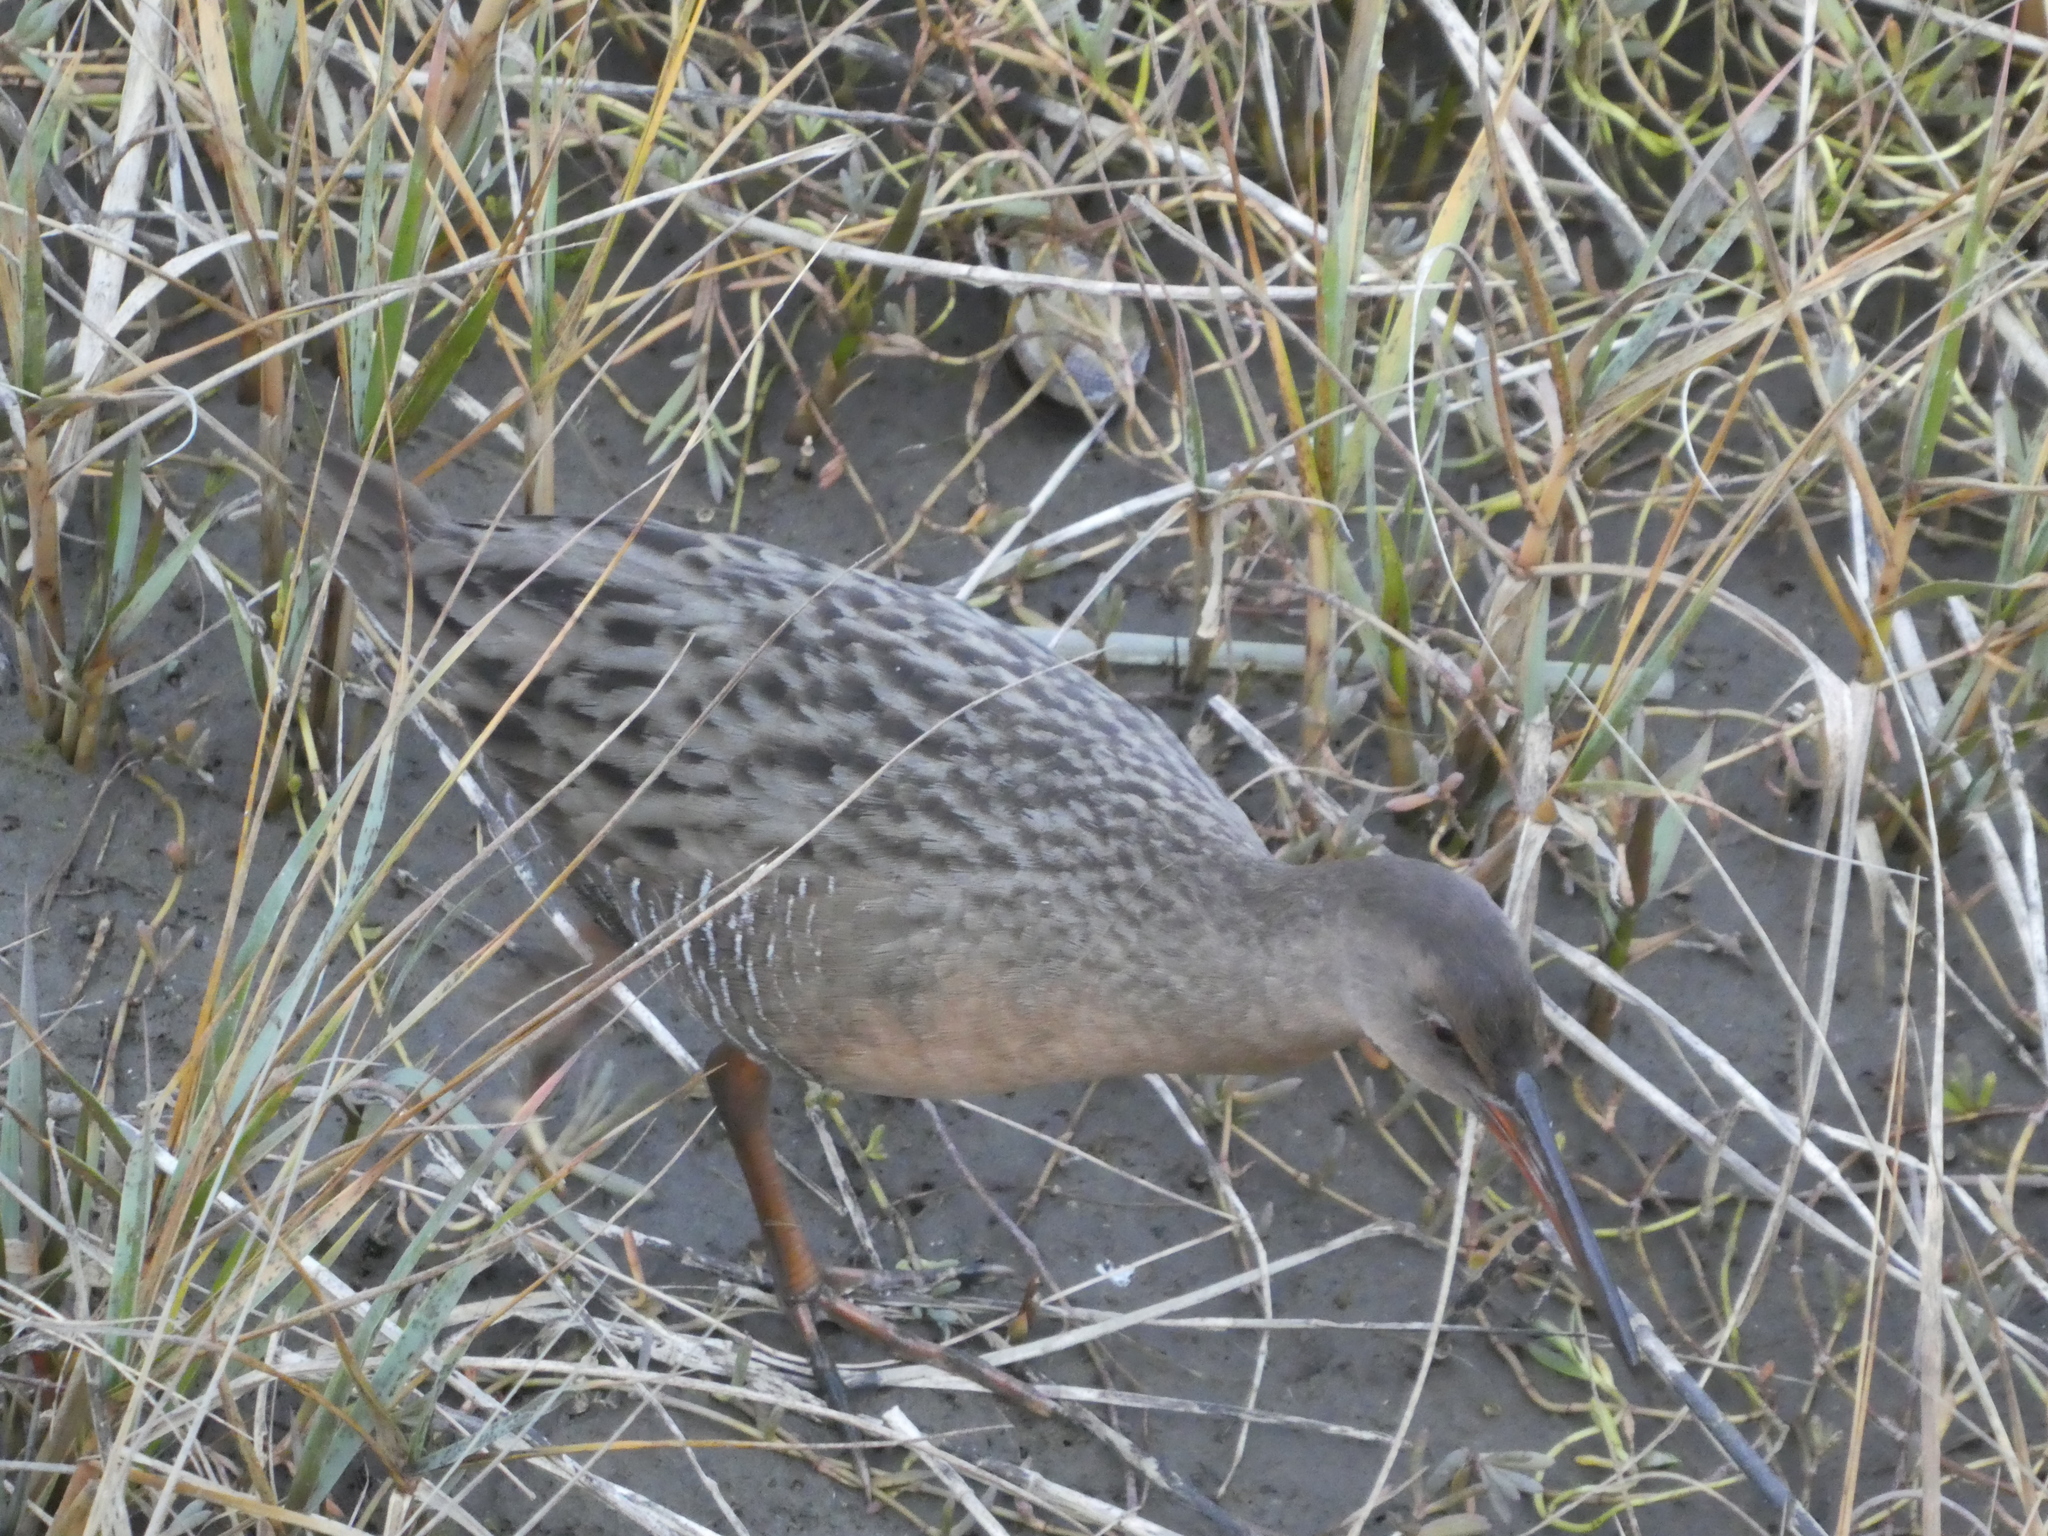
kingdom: Animalia
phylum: Chordata
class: Aves
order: Gruiformes
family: Rallidae
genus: Rallus
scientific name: Rallus obsoletus
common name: Ridgway's rail
